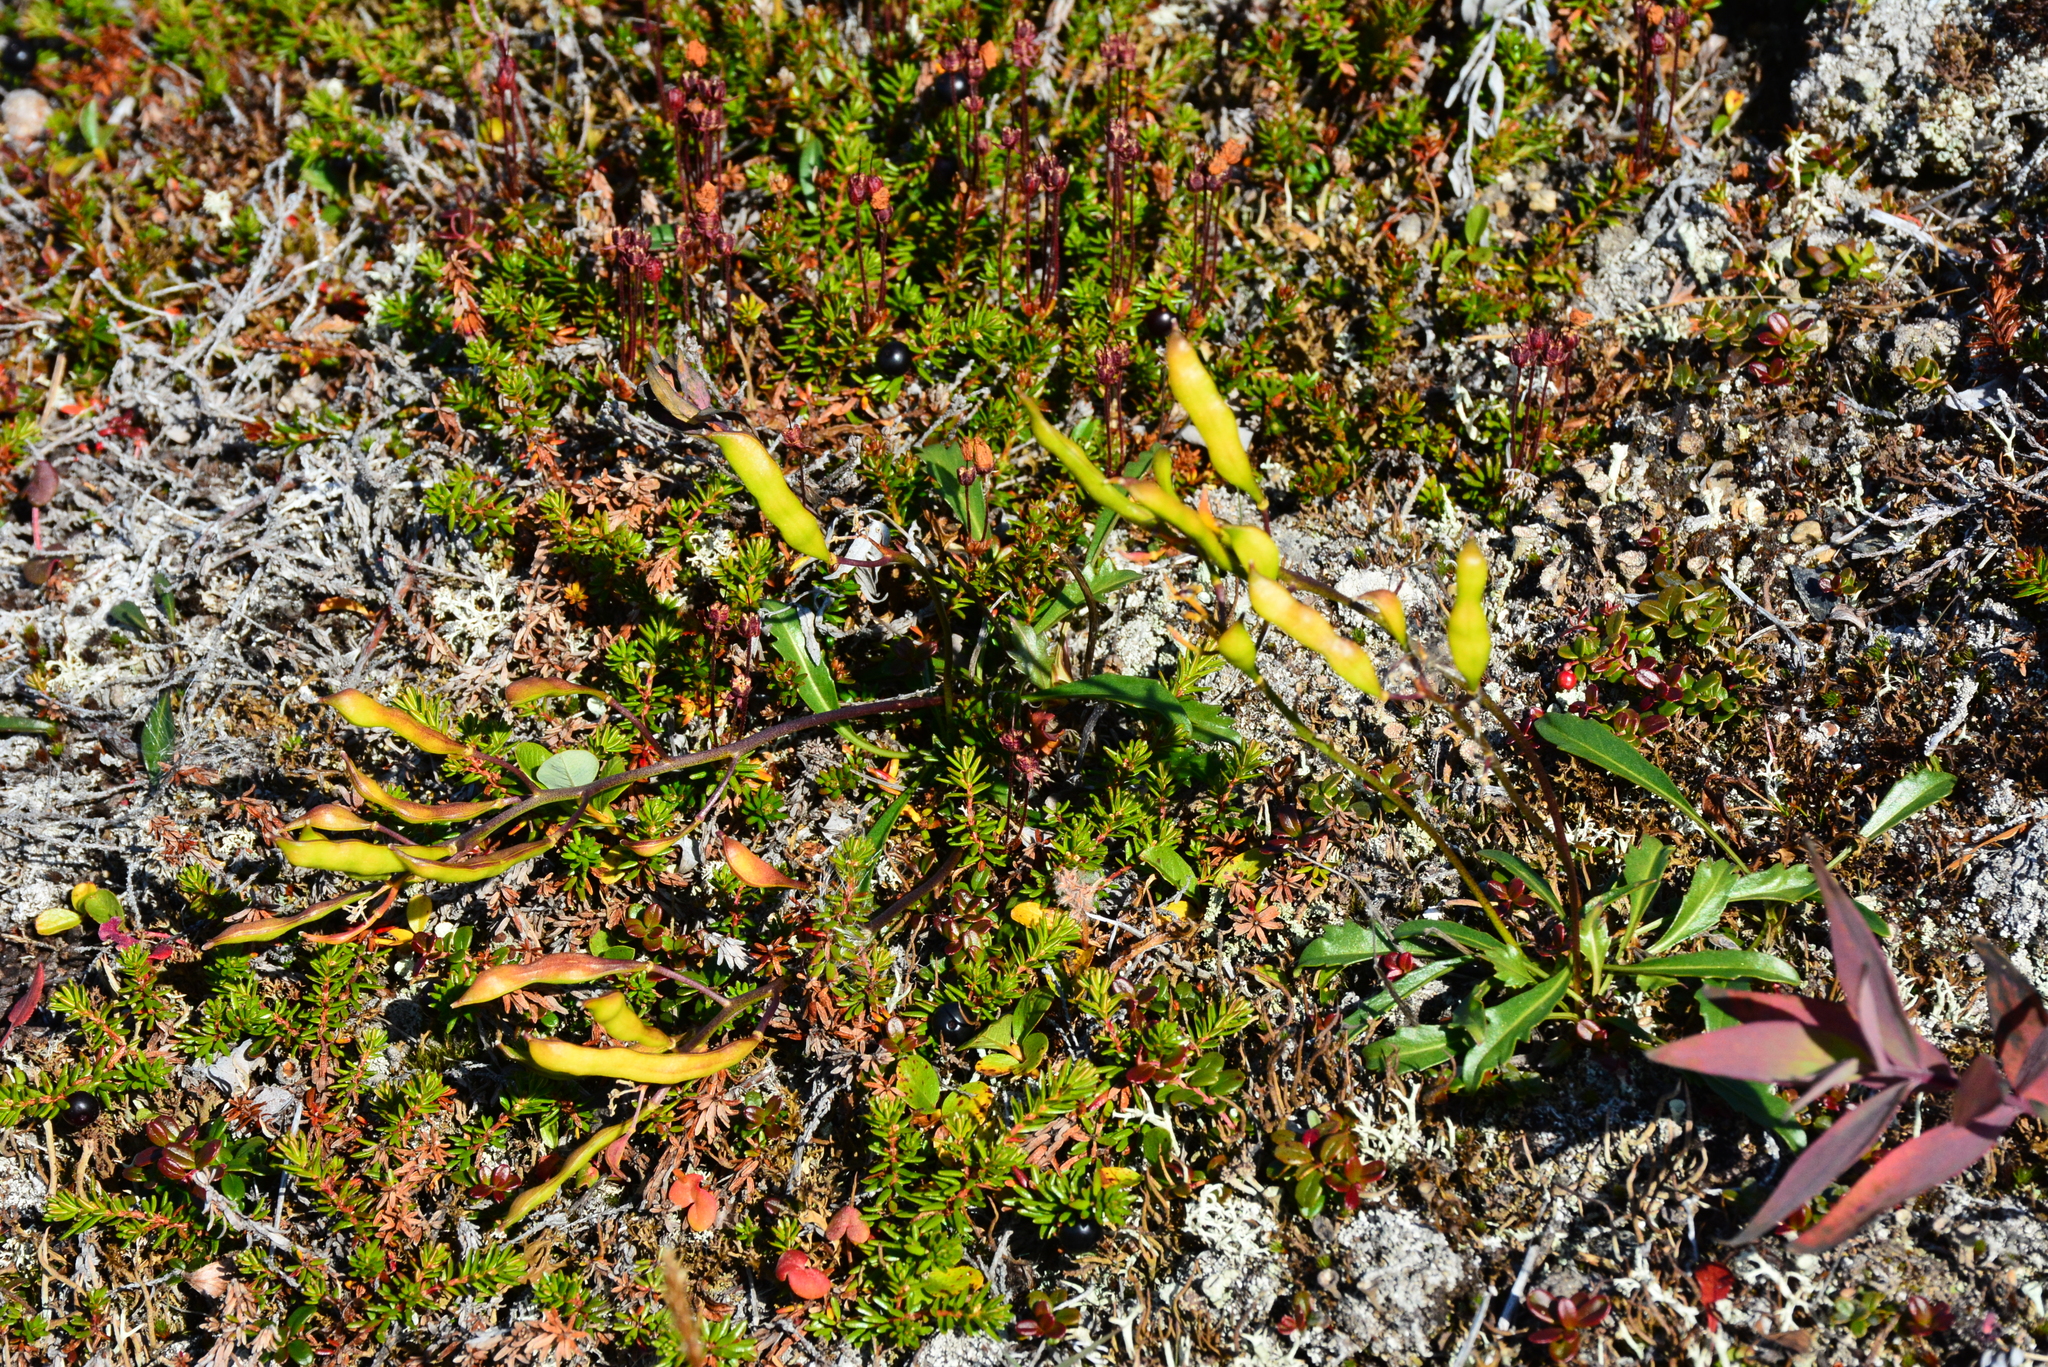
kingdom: Plantae
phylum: Tracheophyta
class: Magnoliopsida
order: Brassicales
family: Brassicaceae
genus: Parrya
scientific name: Parrya nudicaulis
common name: Naked-stemmed false wallflower
